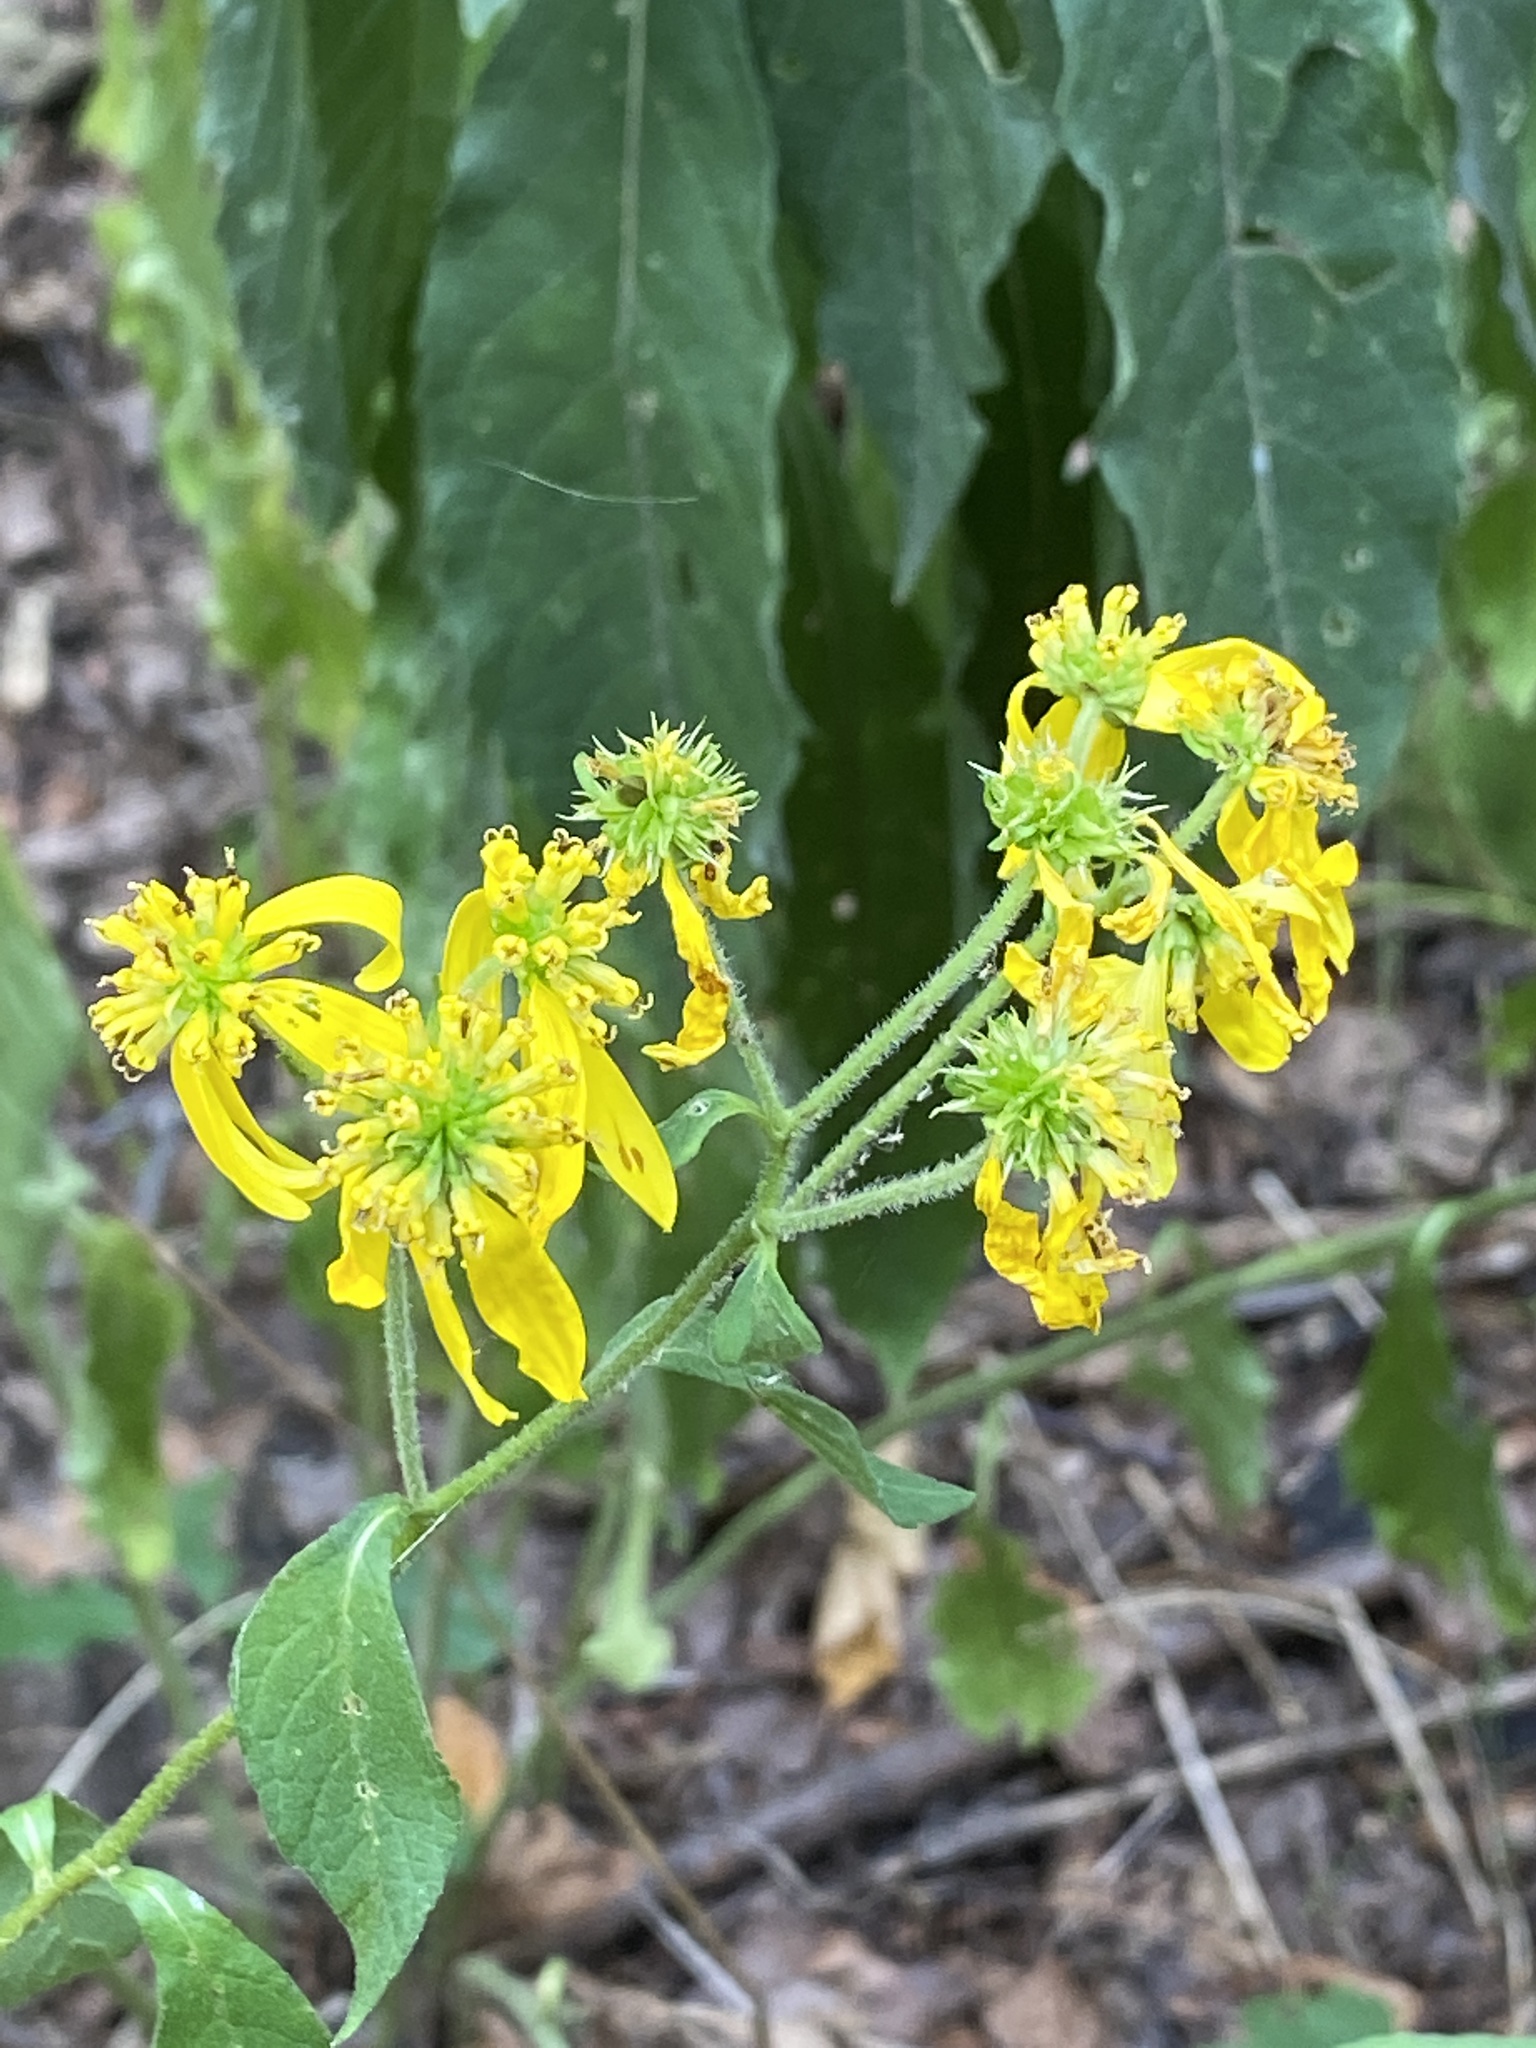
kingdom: Plantae
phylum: Tracheophyta
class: Magnoliopsida
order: Asterales
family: Asteraceae
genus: Verbesina
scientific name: Verbesina alternifolia
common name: Wingstem
